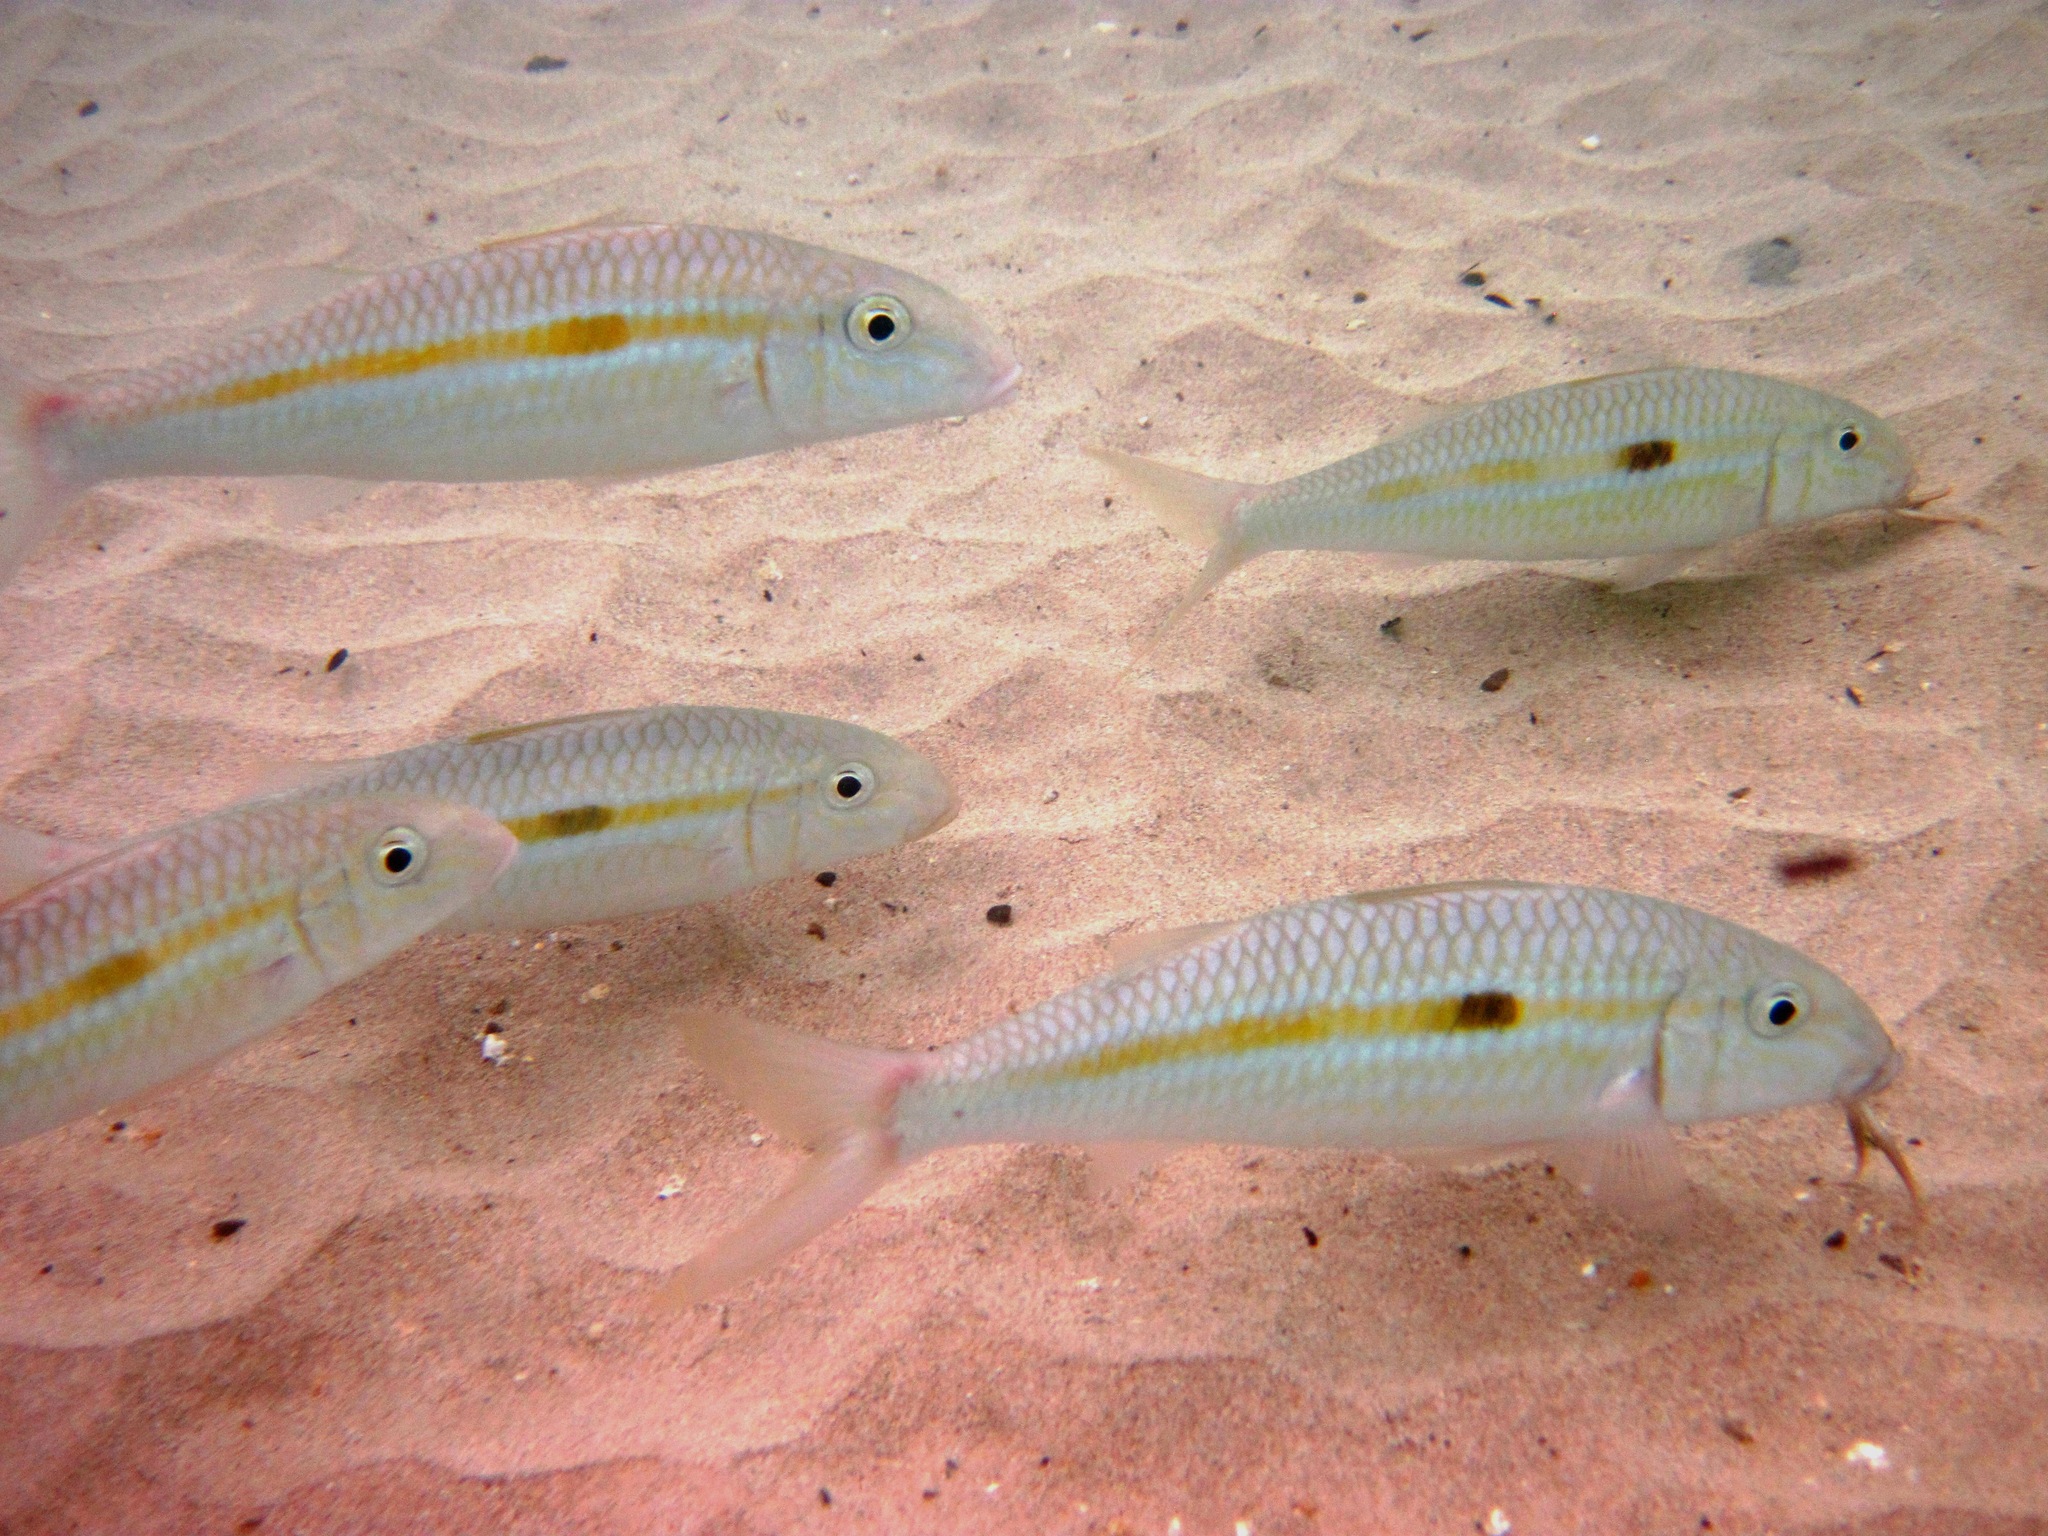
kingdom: Animalia
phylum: Chordata
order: Perciformes
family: Mullidae
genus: Mulloidichthys
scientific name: Mulloidichthys flavolineatus
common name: Yellowstripe goatfish
